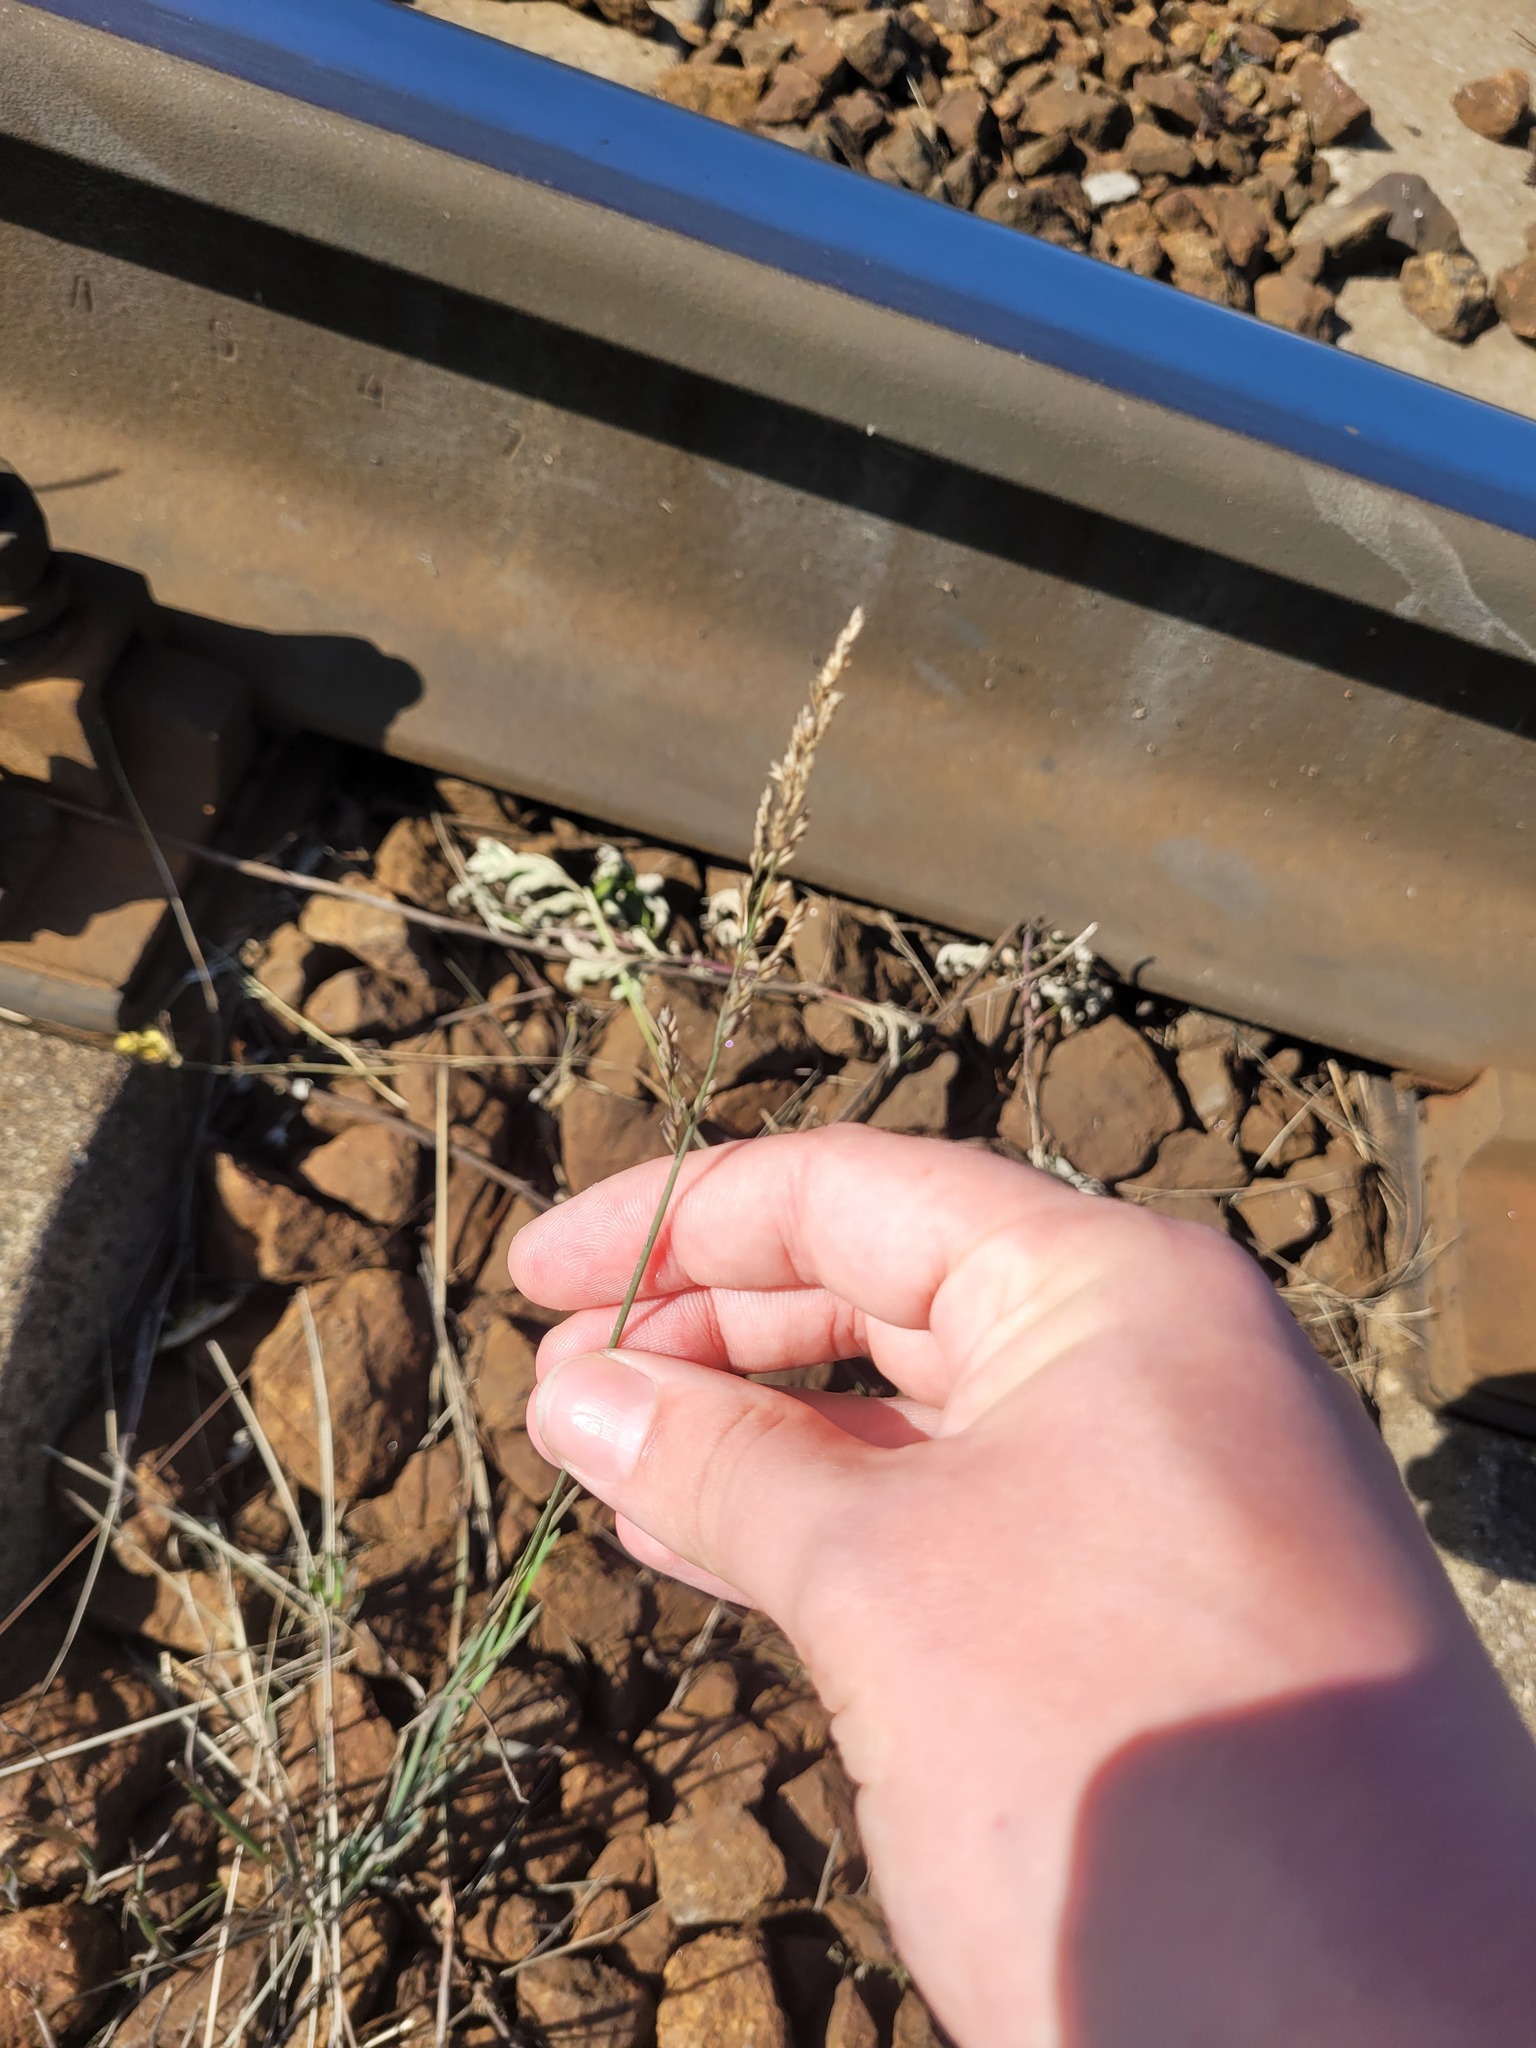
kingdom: Plantae
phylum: Tracheophyta
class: Liliopsida
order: Poales
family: Poaceae
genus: Poa
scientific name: Poa compressa
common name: Canada bluegrass
